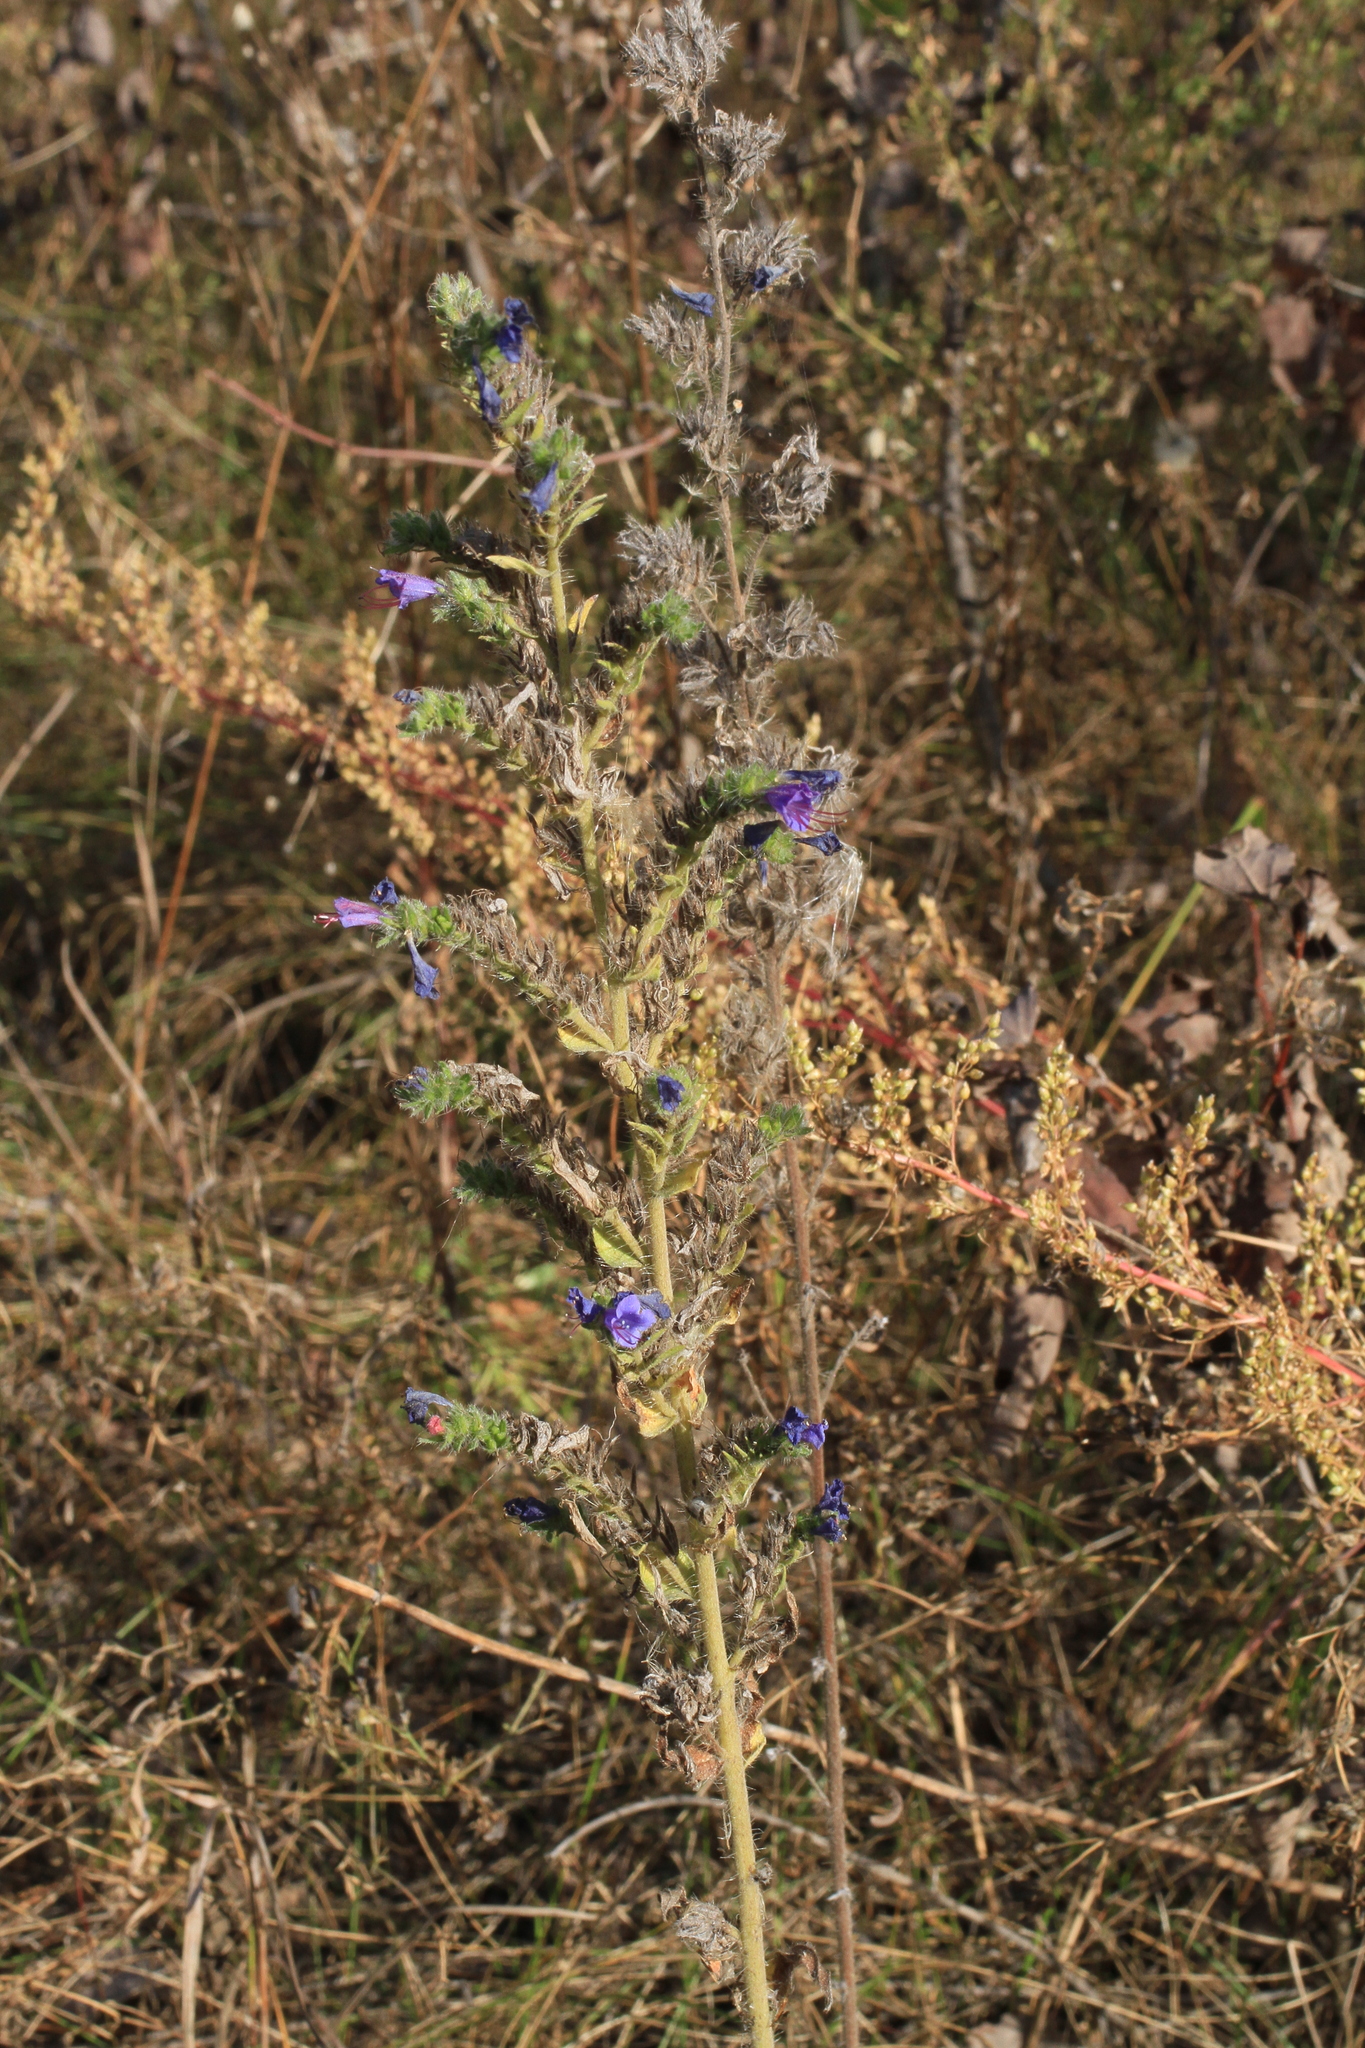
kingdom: Plantae
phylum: Tracheophyta
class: Magnoliopsida
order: Boraginales
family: Boraginaceae
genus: Echium
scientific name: Echium vulgare
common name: Common viper's bugloss
